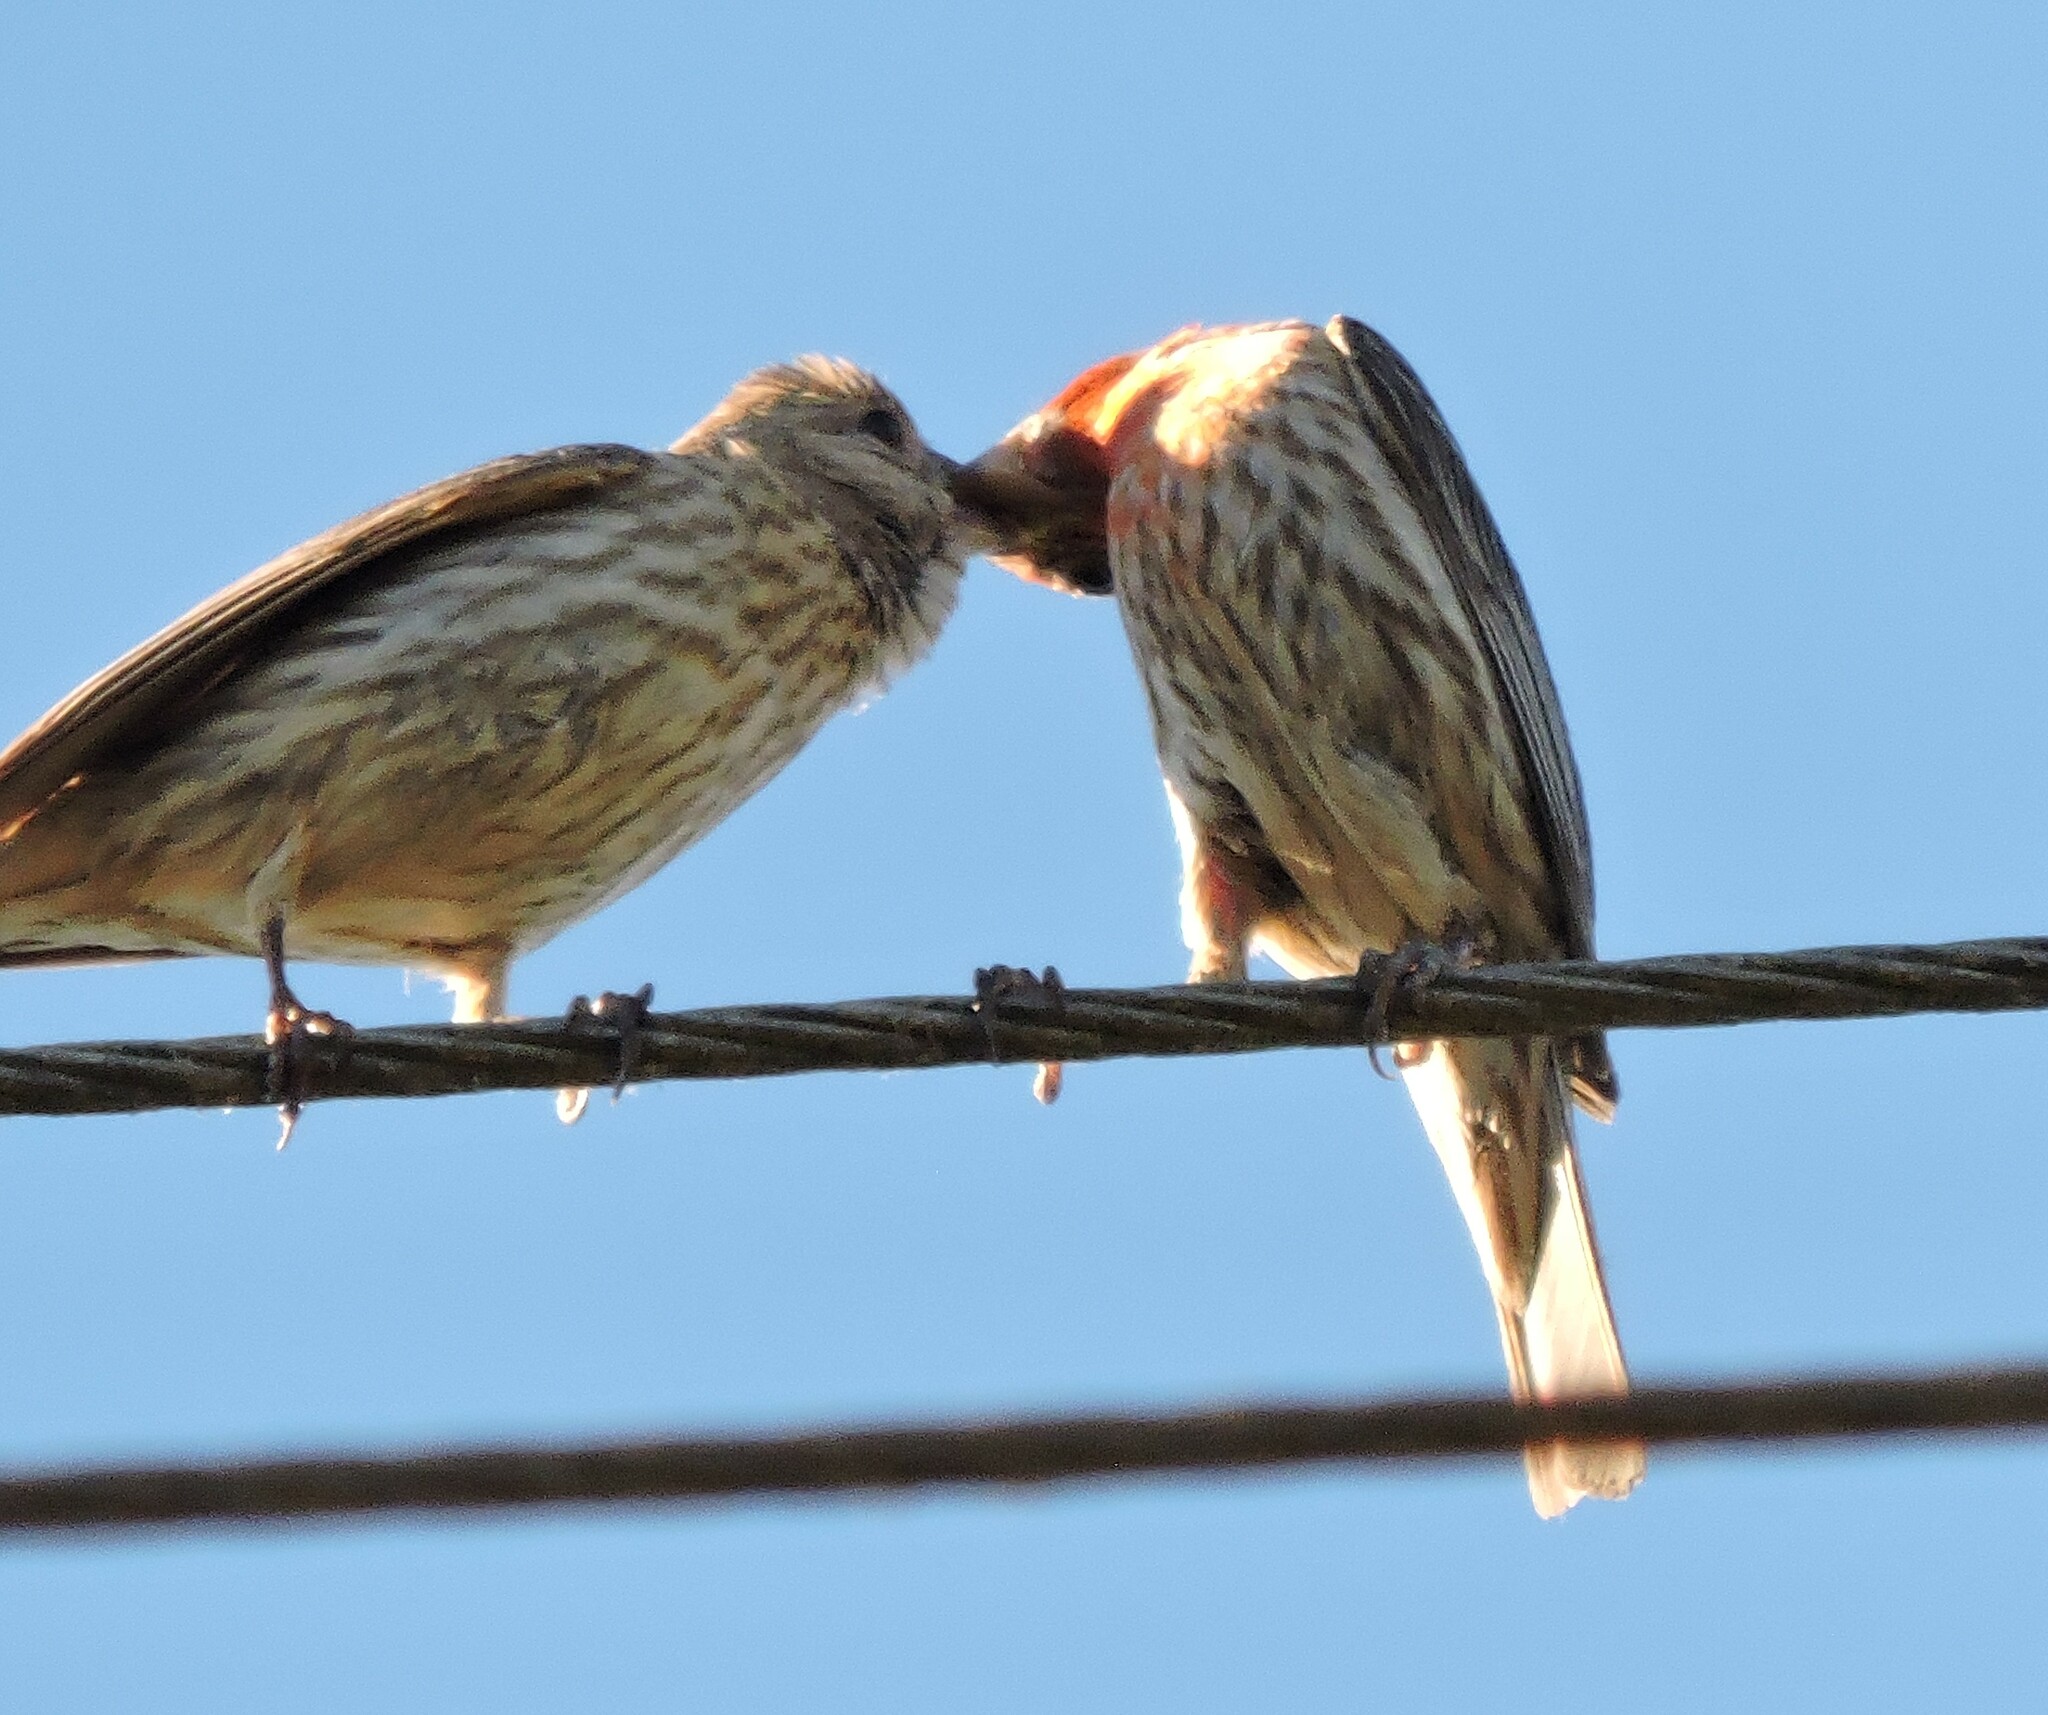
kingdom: Animalia
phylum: Chordata
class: Aves
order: Passeriformes
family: Fringillidae
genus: Haemorhous
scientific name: Haemorhous mexicanus
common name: House finch
